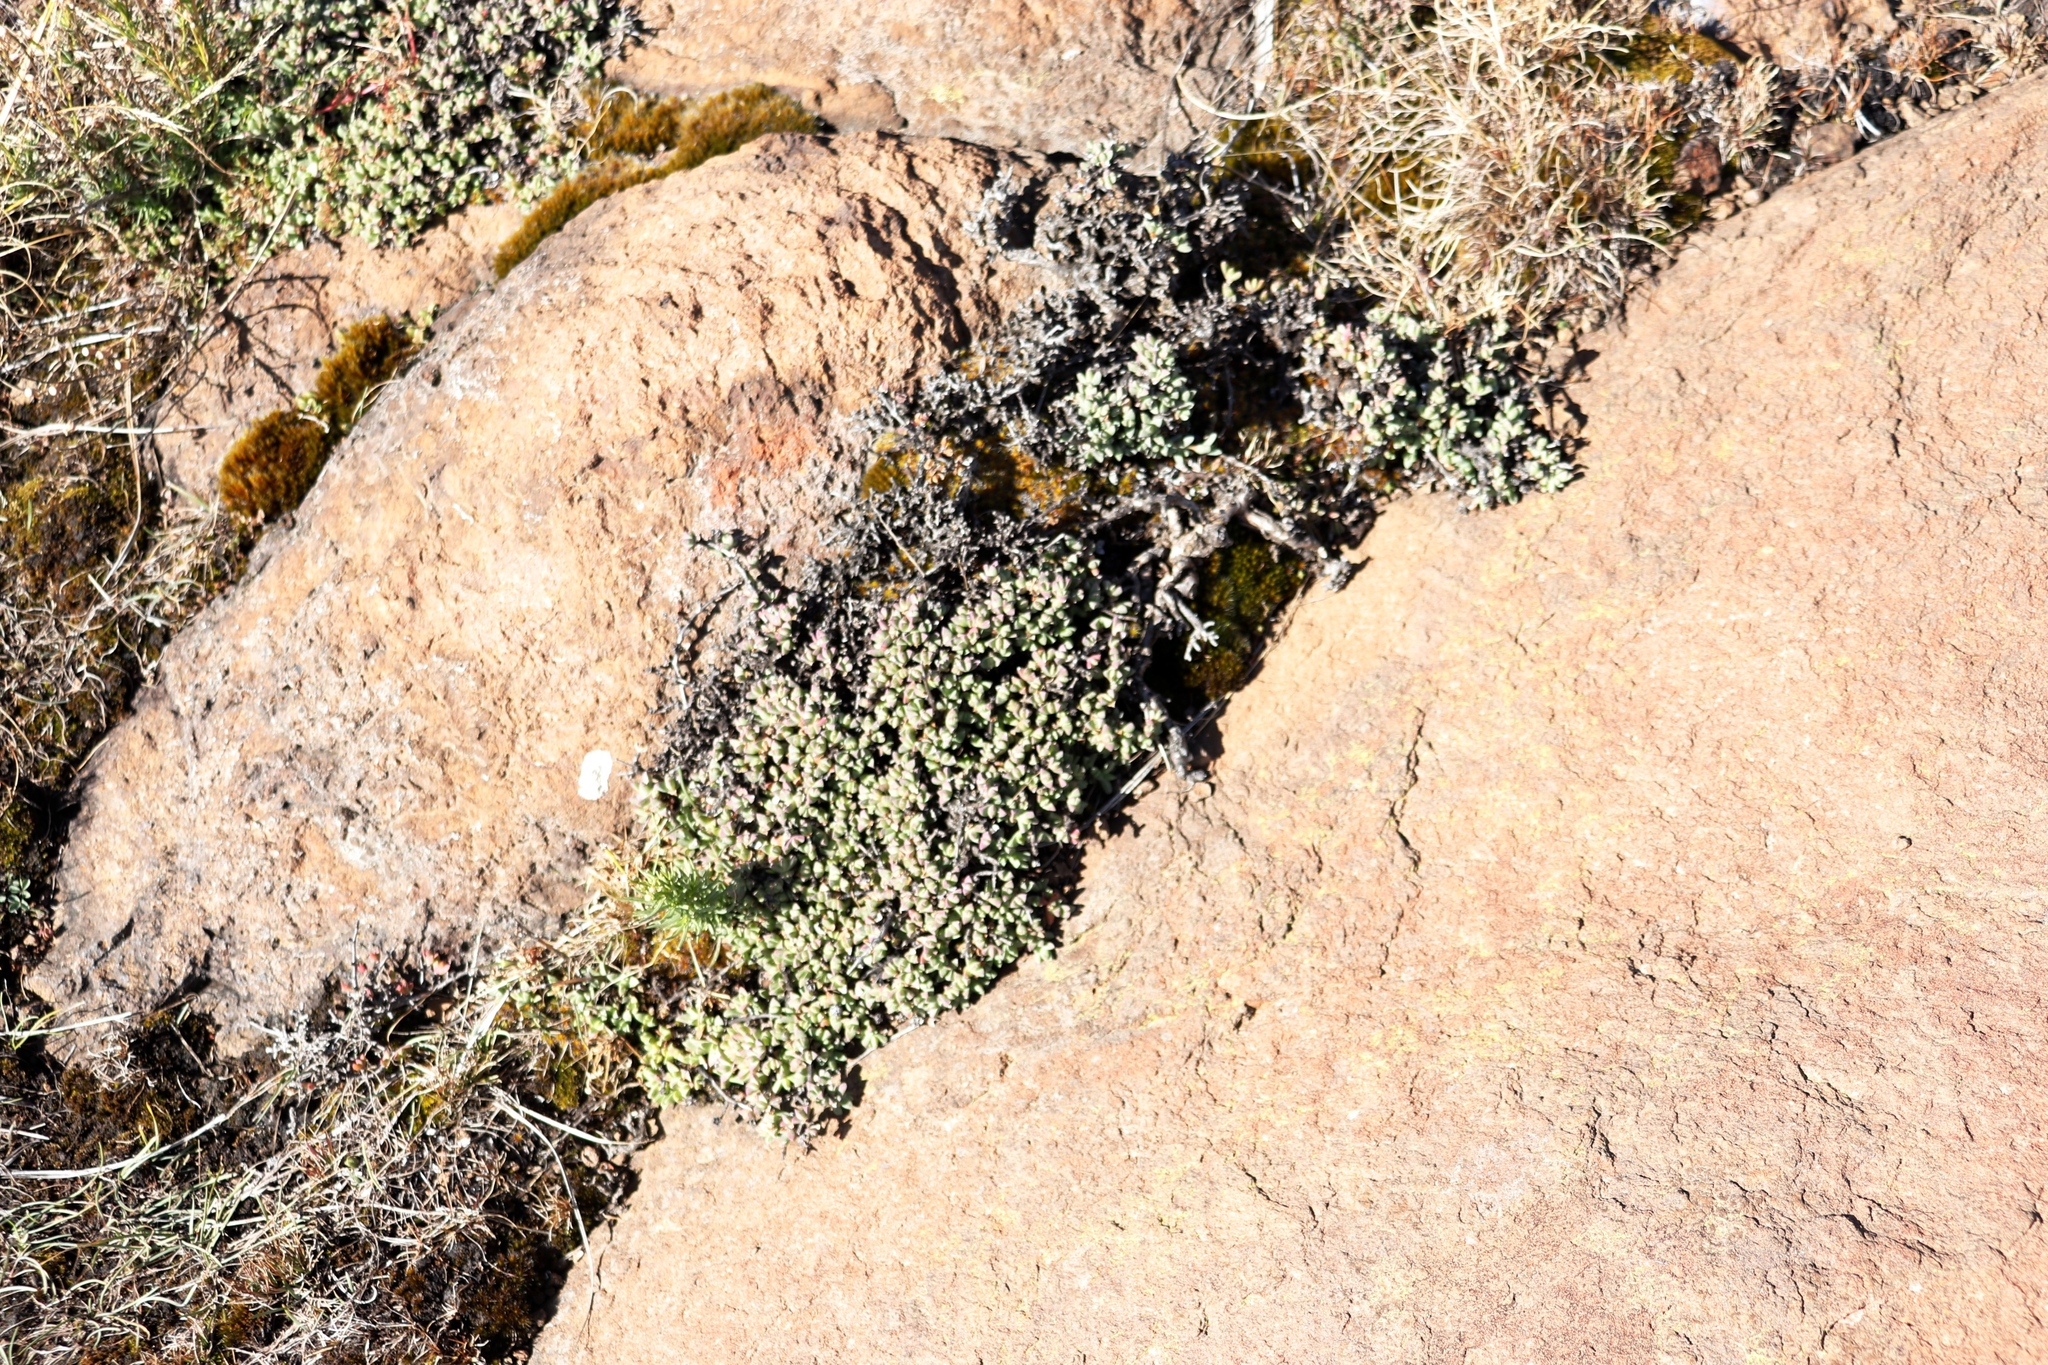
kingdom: Plantae
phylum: Tracheophyta
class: Magnoliopsida
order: Caryophyllales
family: Aizoaceae
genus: Ruschia
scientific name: Ruschia putterillii
